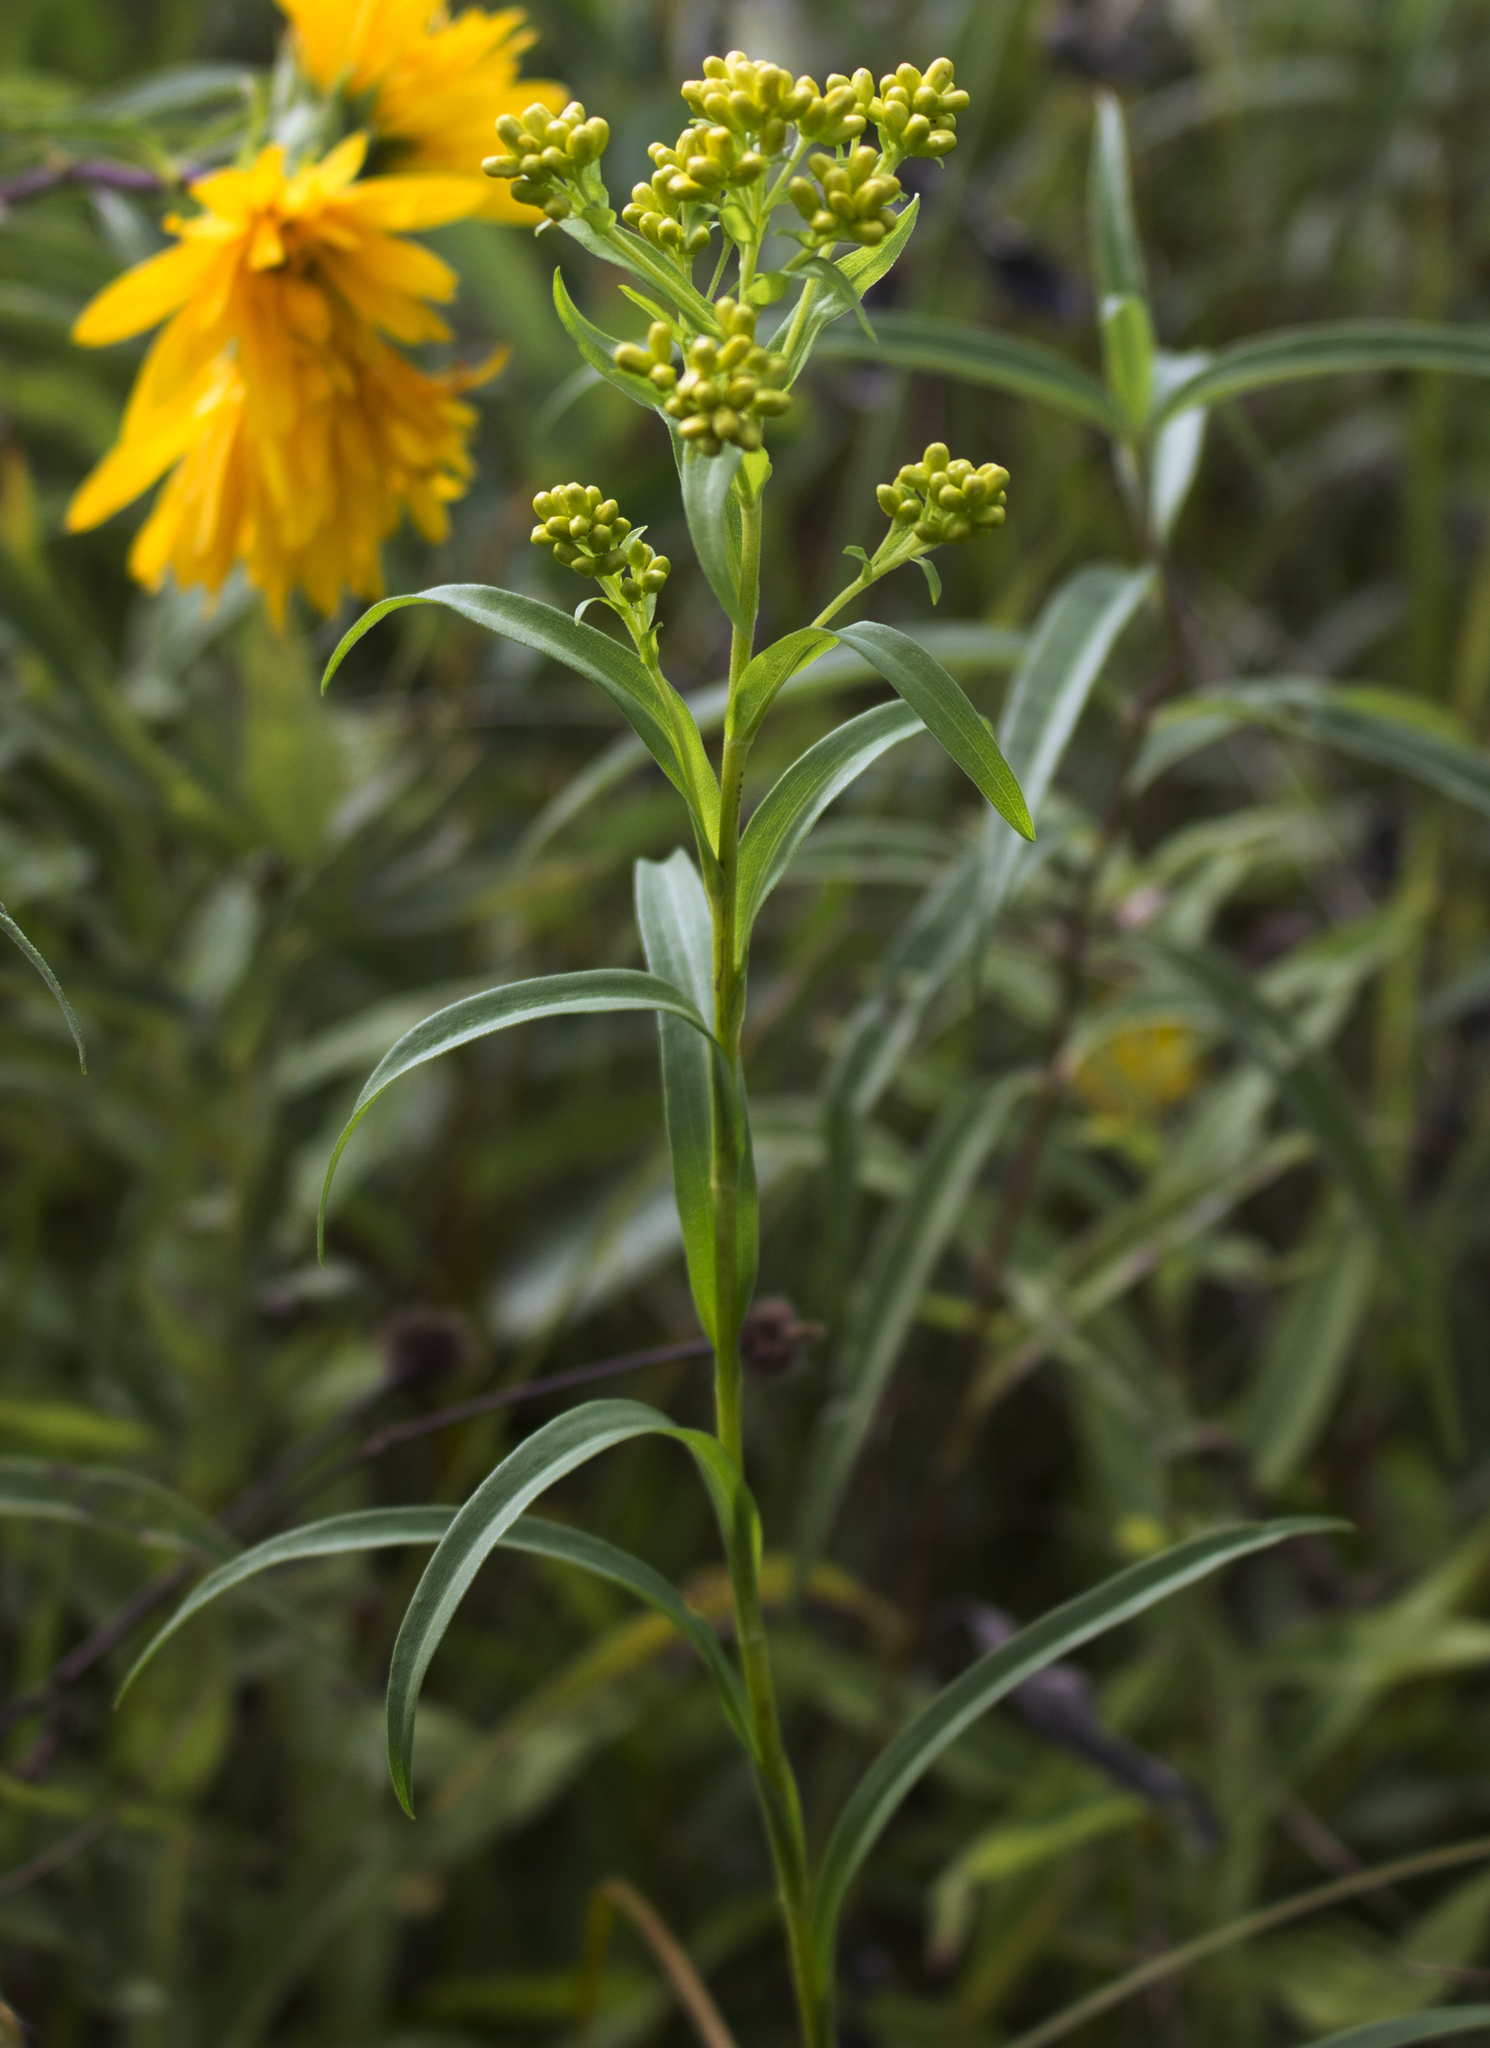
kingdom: Plantae
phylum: Tracheophyta
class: Magnoliopsida
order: Asterales
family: Asteraceae
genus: Solidago
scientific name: Solidago riddellii
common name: Riddell's goldenrod
